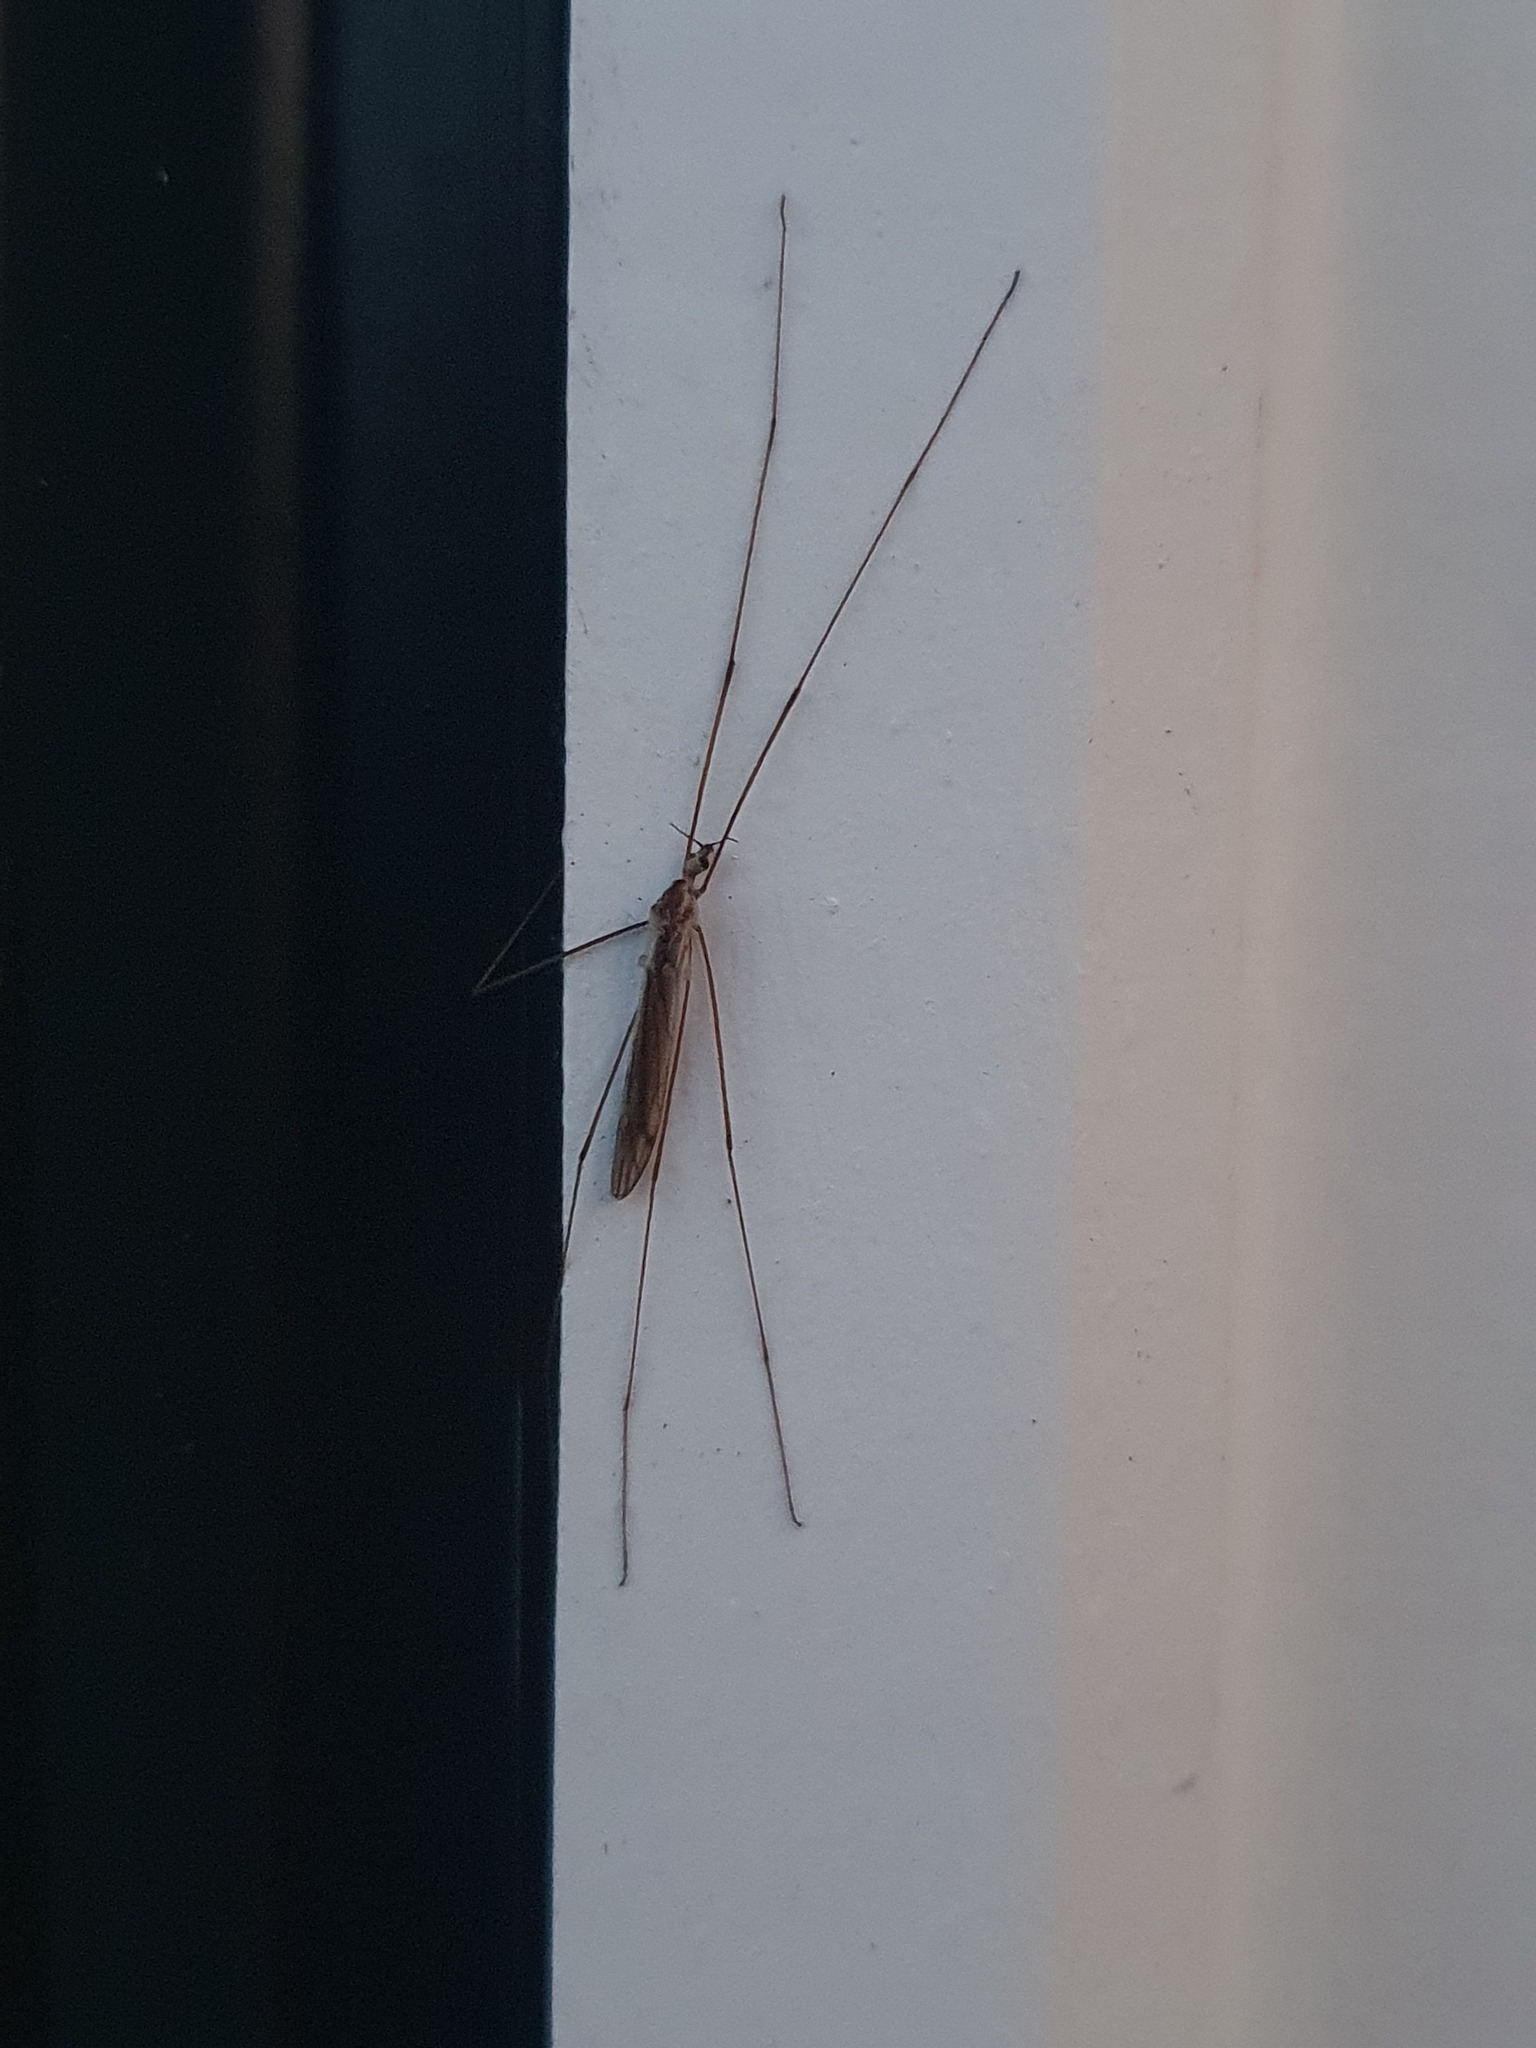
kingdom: Animalia
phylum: Arthropoda
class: Insecta
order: Diptera
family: Limoniidae
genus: Dicranomyia
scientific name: Dicranomyia aegrotans
